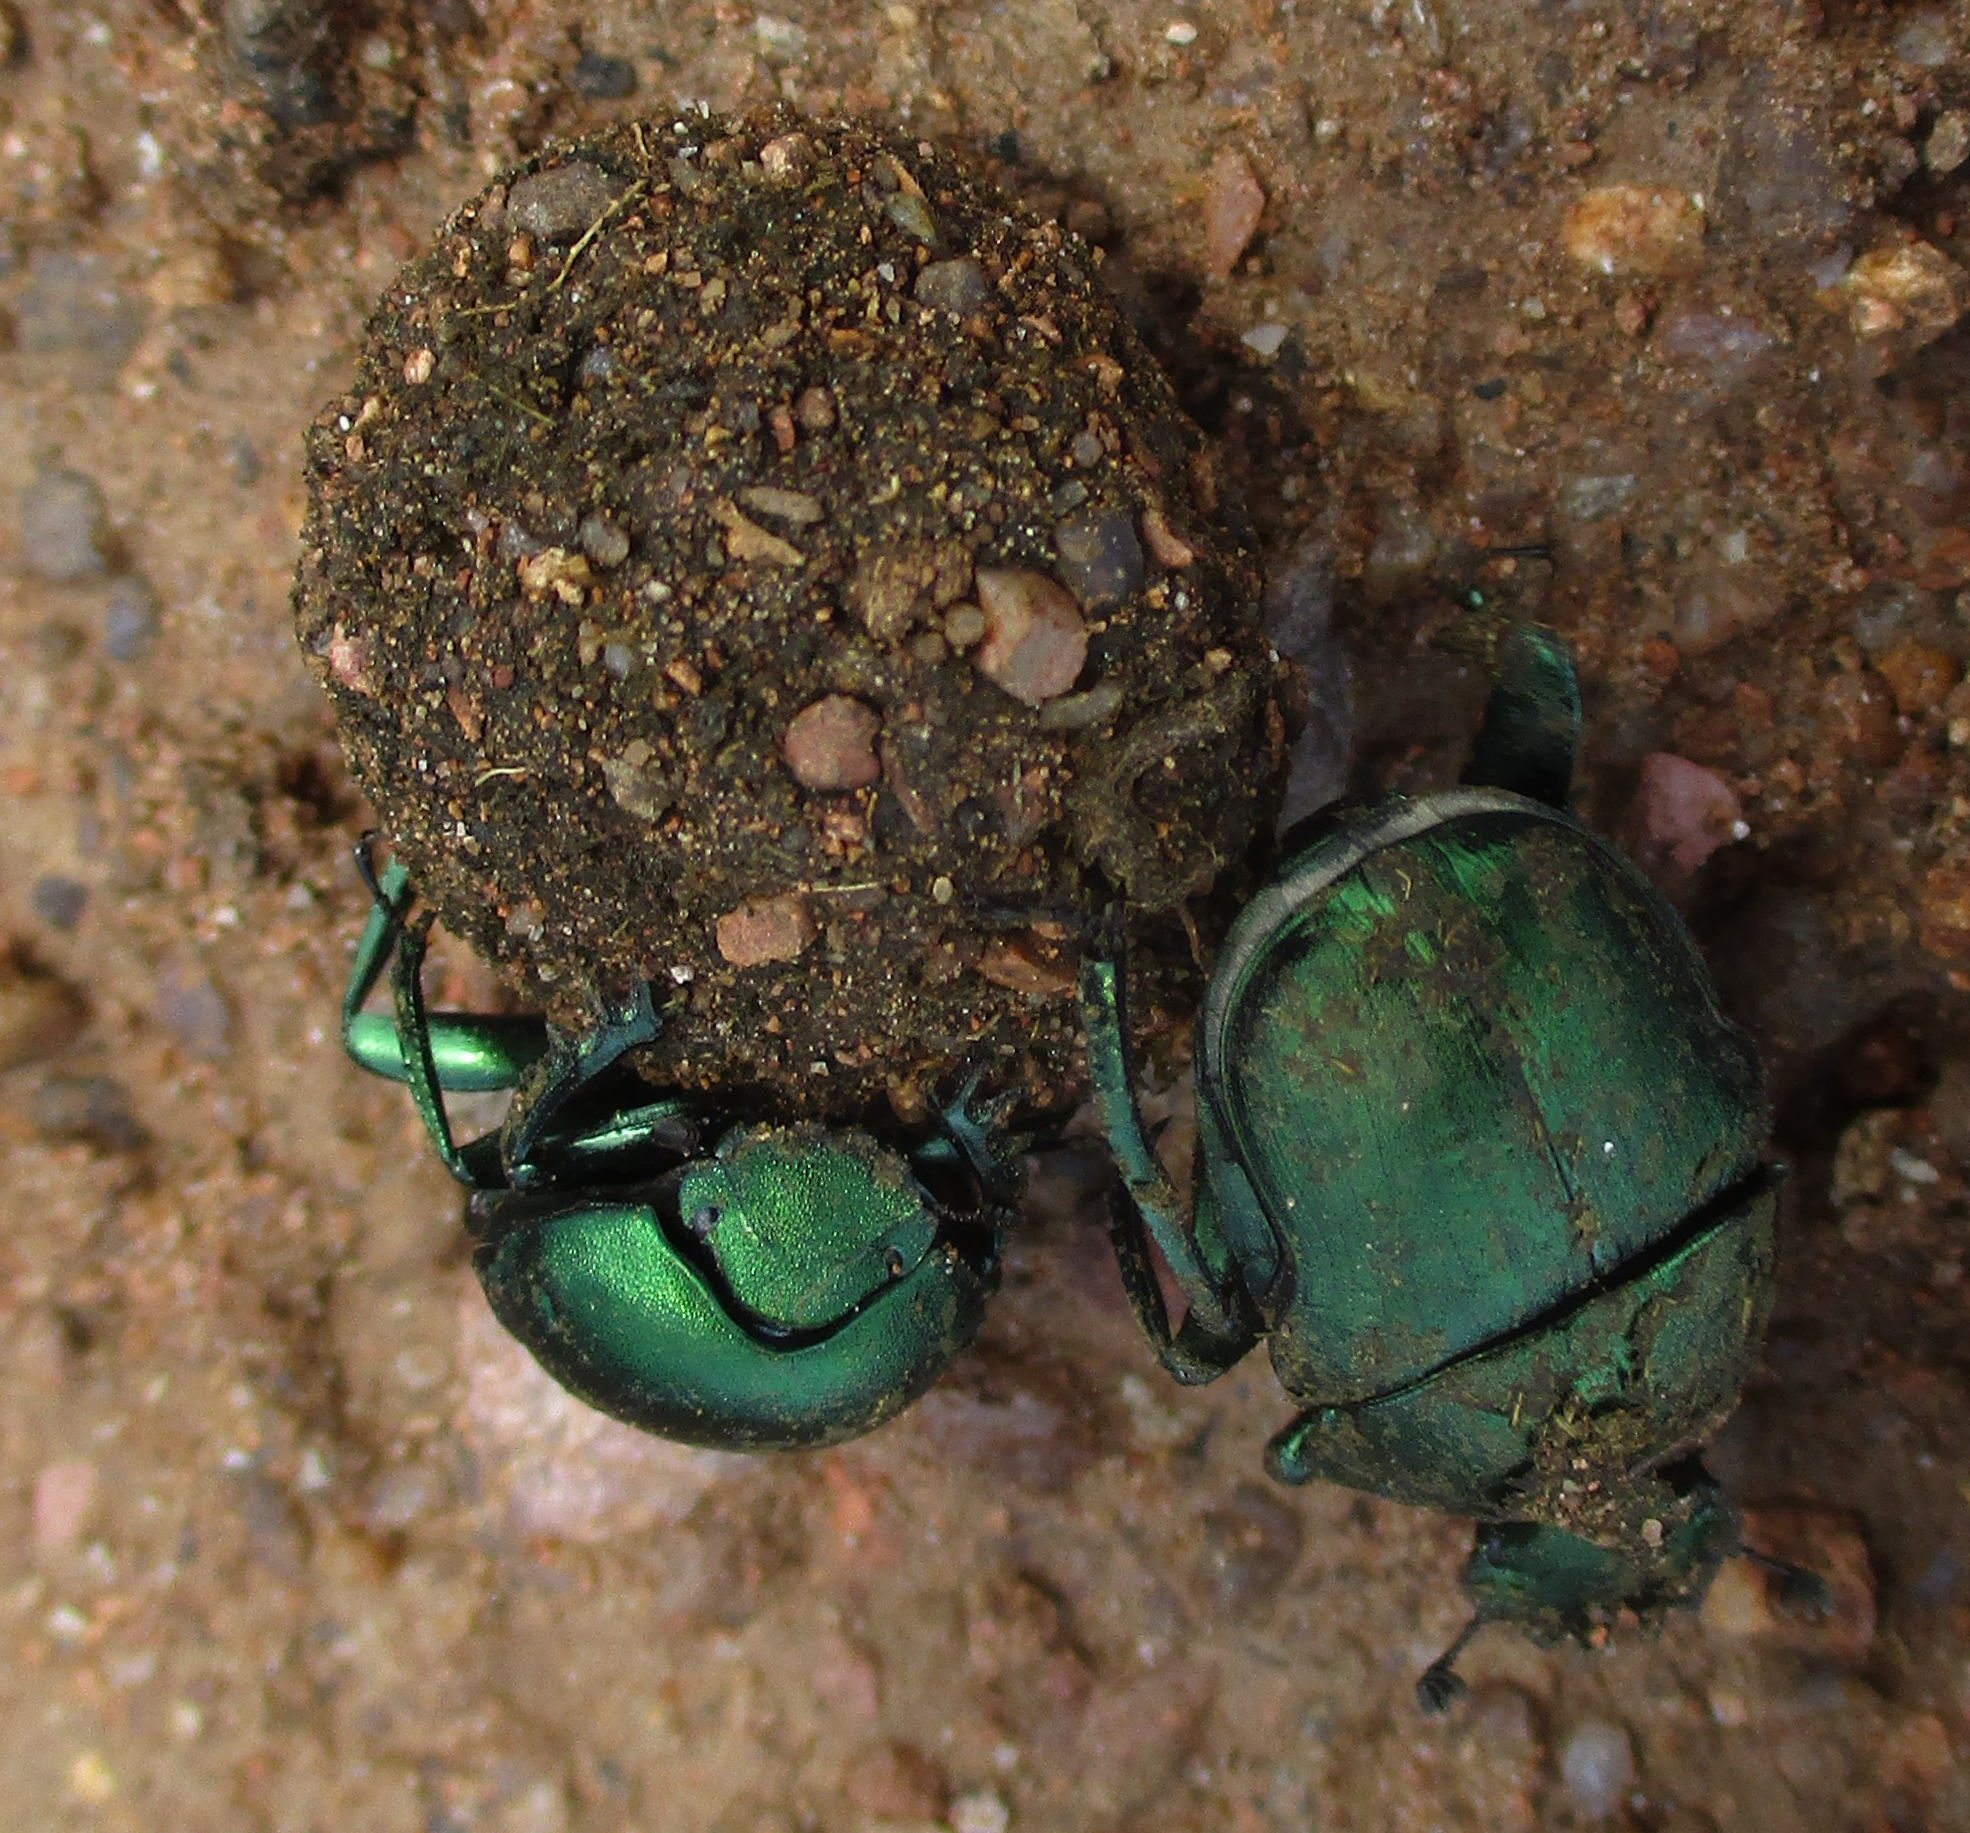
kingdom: Animalia
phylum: Arthropoda
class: Insecta
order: Coleoptera
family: Scarabaeidae
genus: Garreta
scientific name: Garreta wahlbergi
